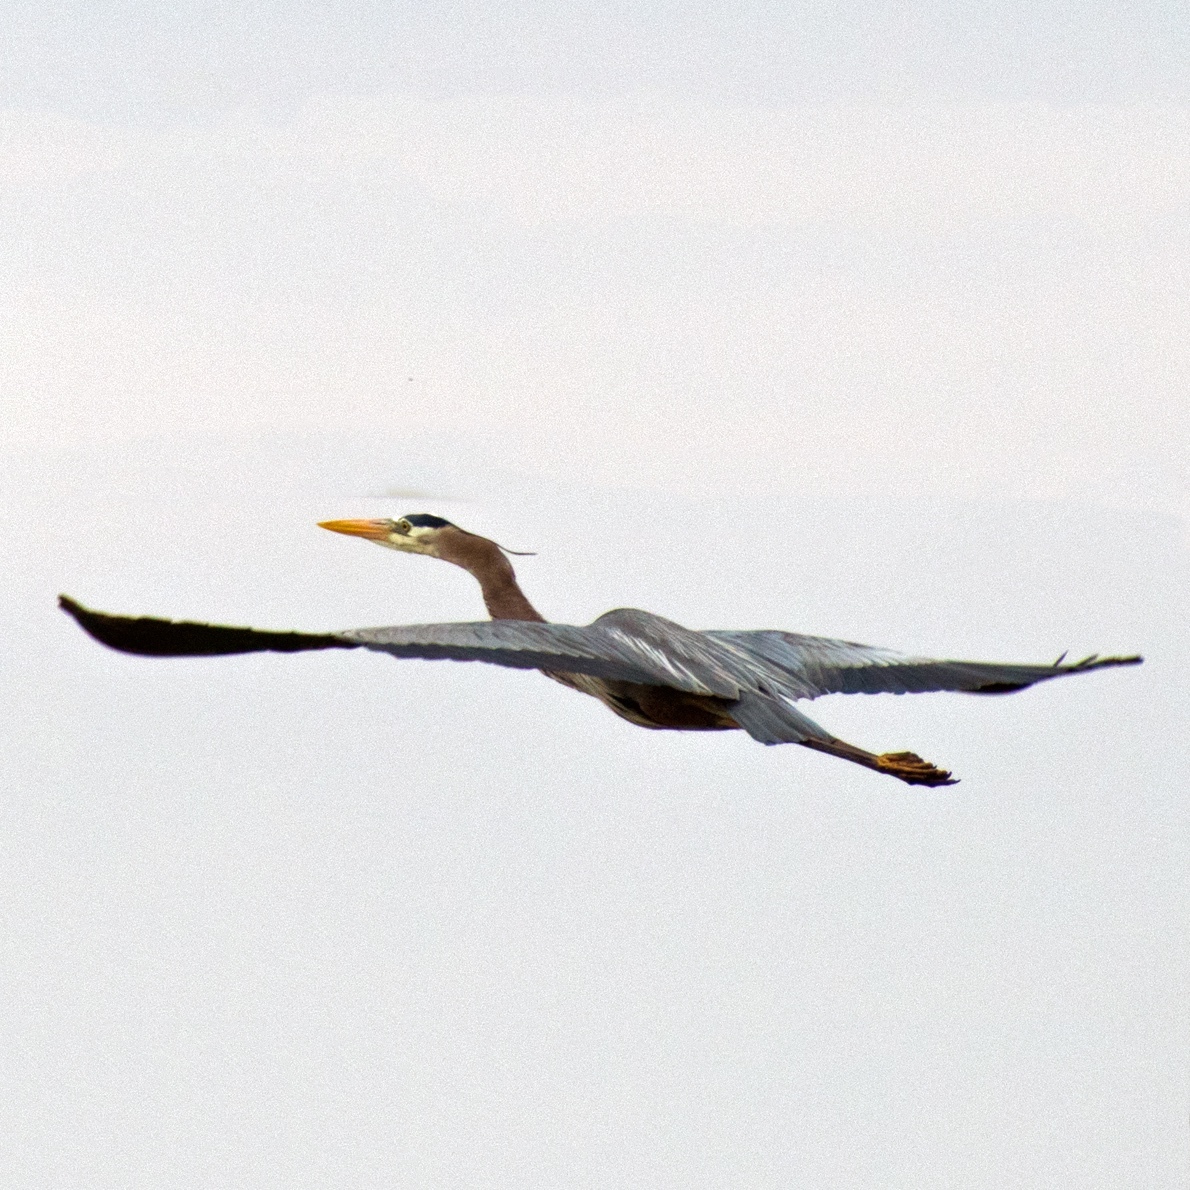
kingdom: Animalia
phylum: Chordata
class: Aves
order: Pelecaniformes
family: Ardeidae
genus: Ardea
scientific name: Ardea herodias
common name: Great blue heron
